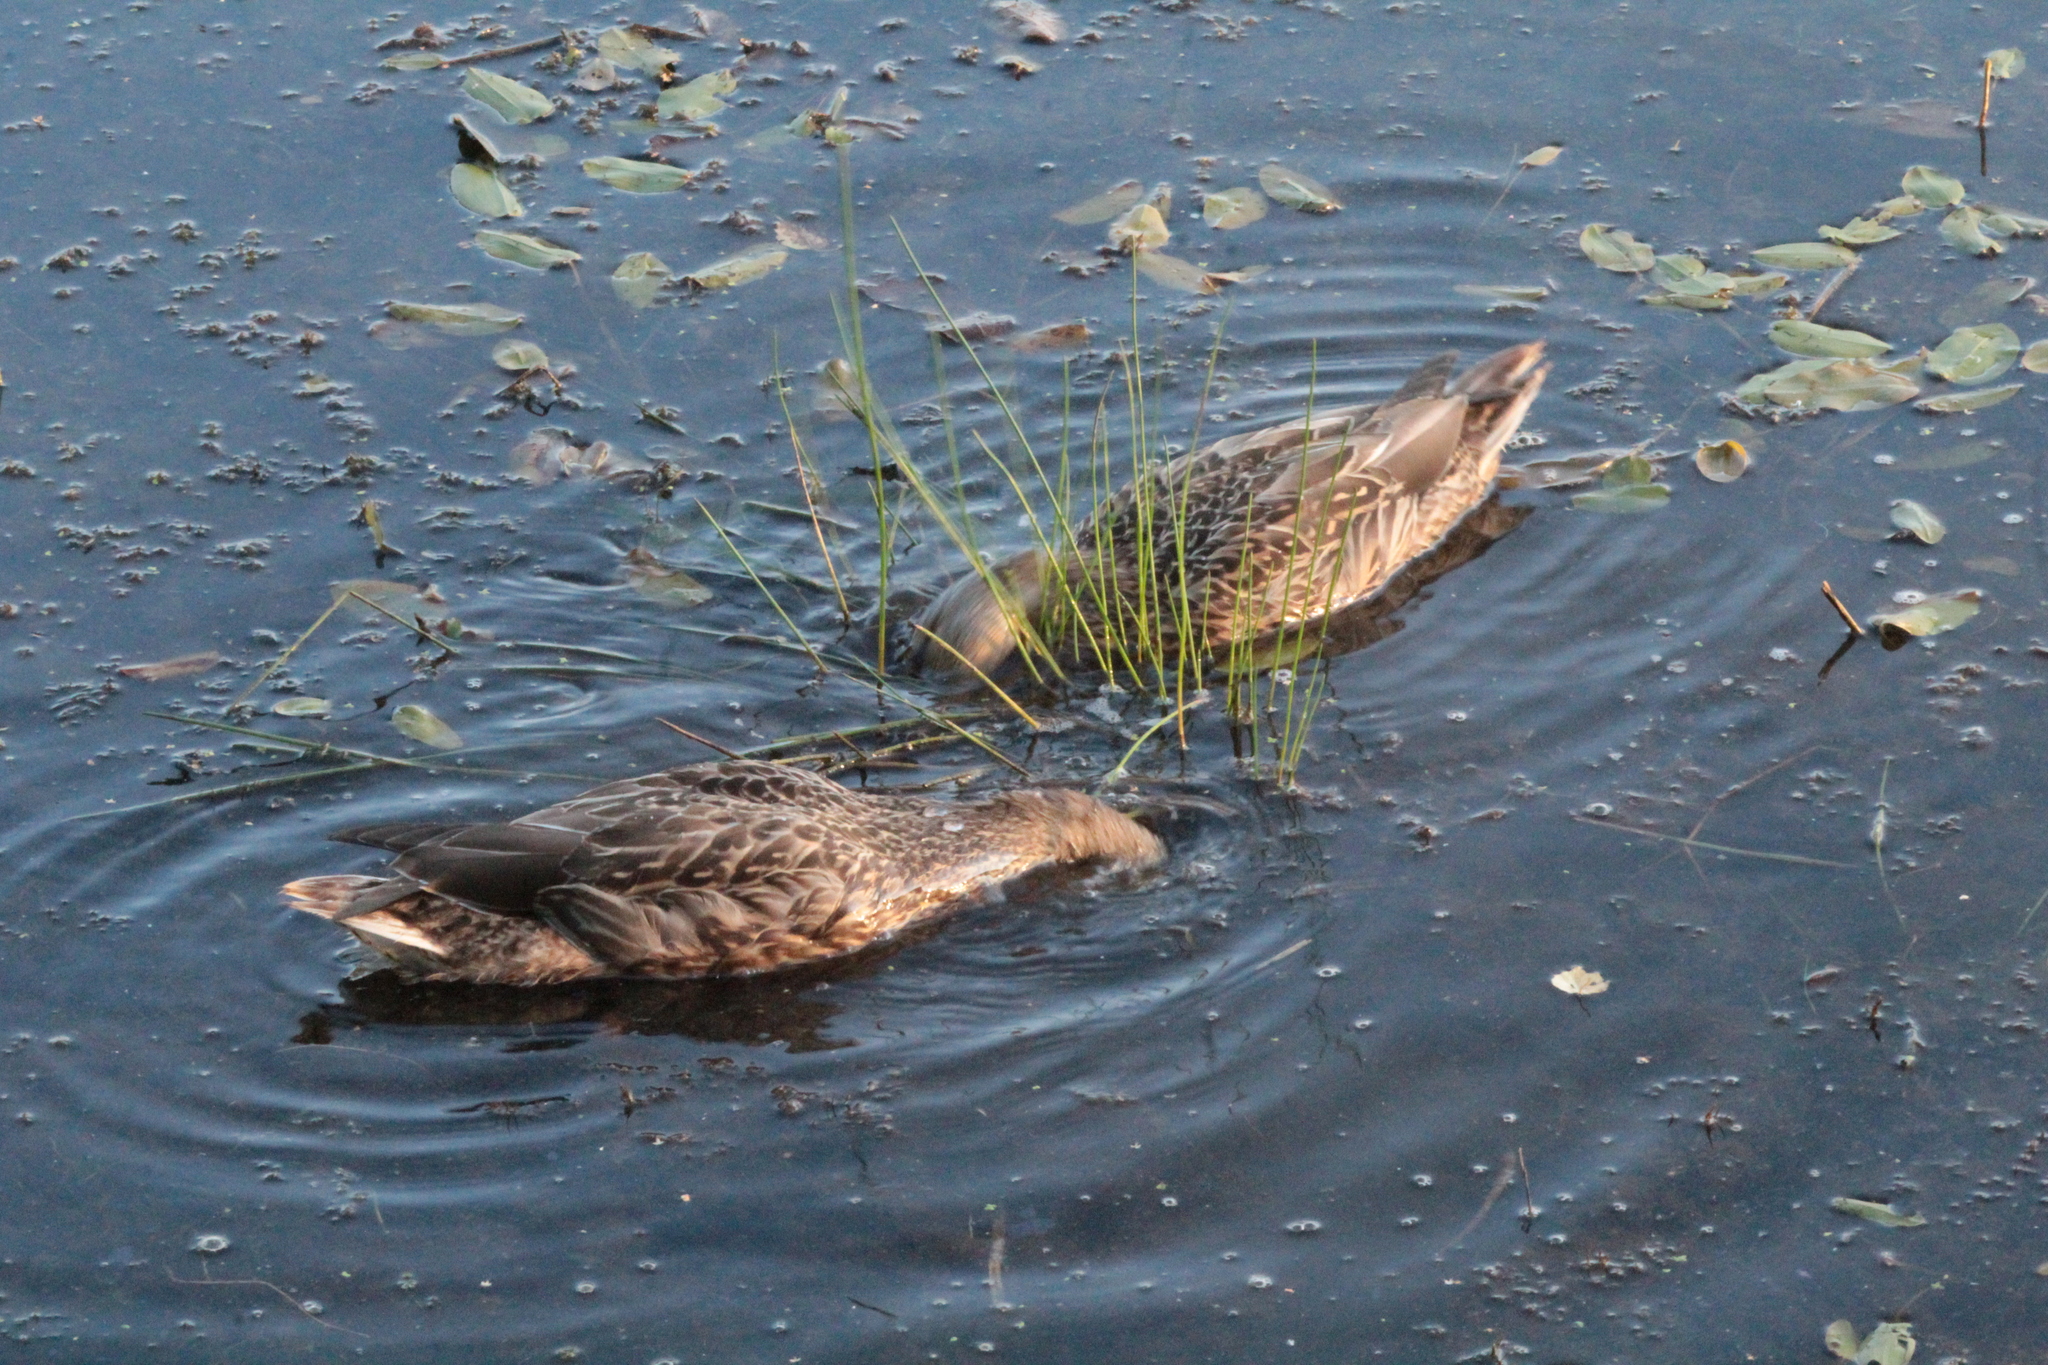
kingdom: Animalia
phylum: Chordata
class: Aves
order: Anseriformes
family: Anatidae
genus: Anas
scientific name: Anas platyrhynchos
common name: Mallard
